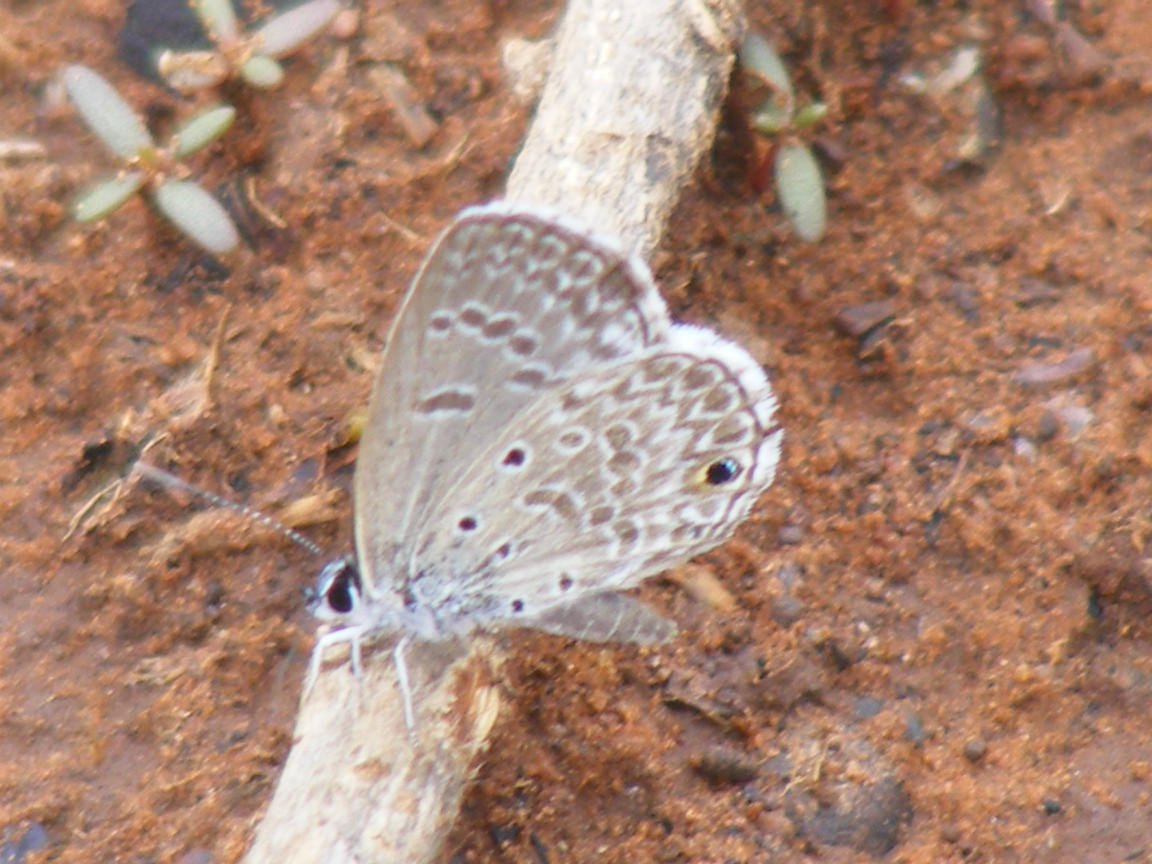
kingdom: Animalia
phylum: Arthropoda
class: Insecta
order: Lepidoptera
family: Lycaenidae
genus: Lepidochrysops
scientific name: Lepidochrysops patricia
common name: Patricia blue
